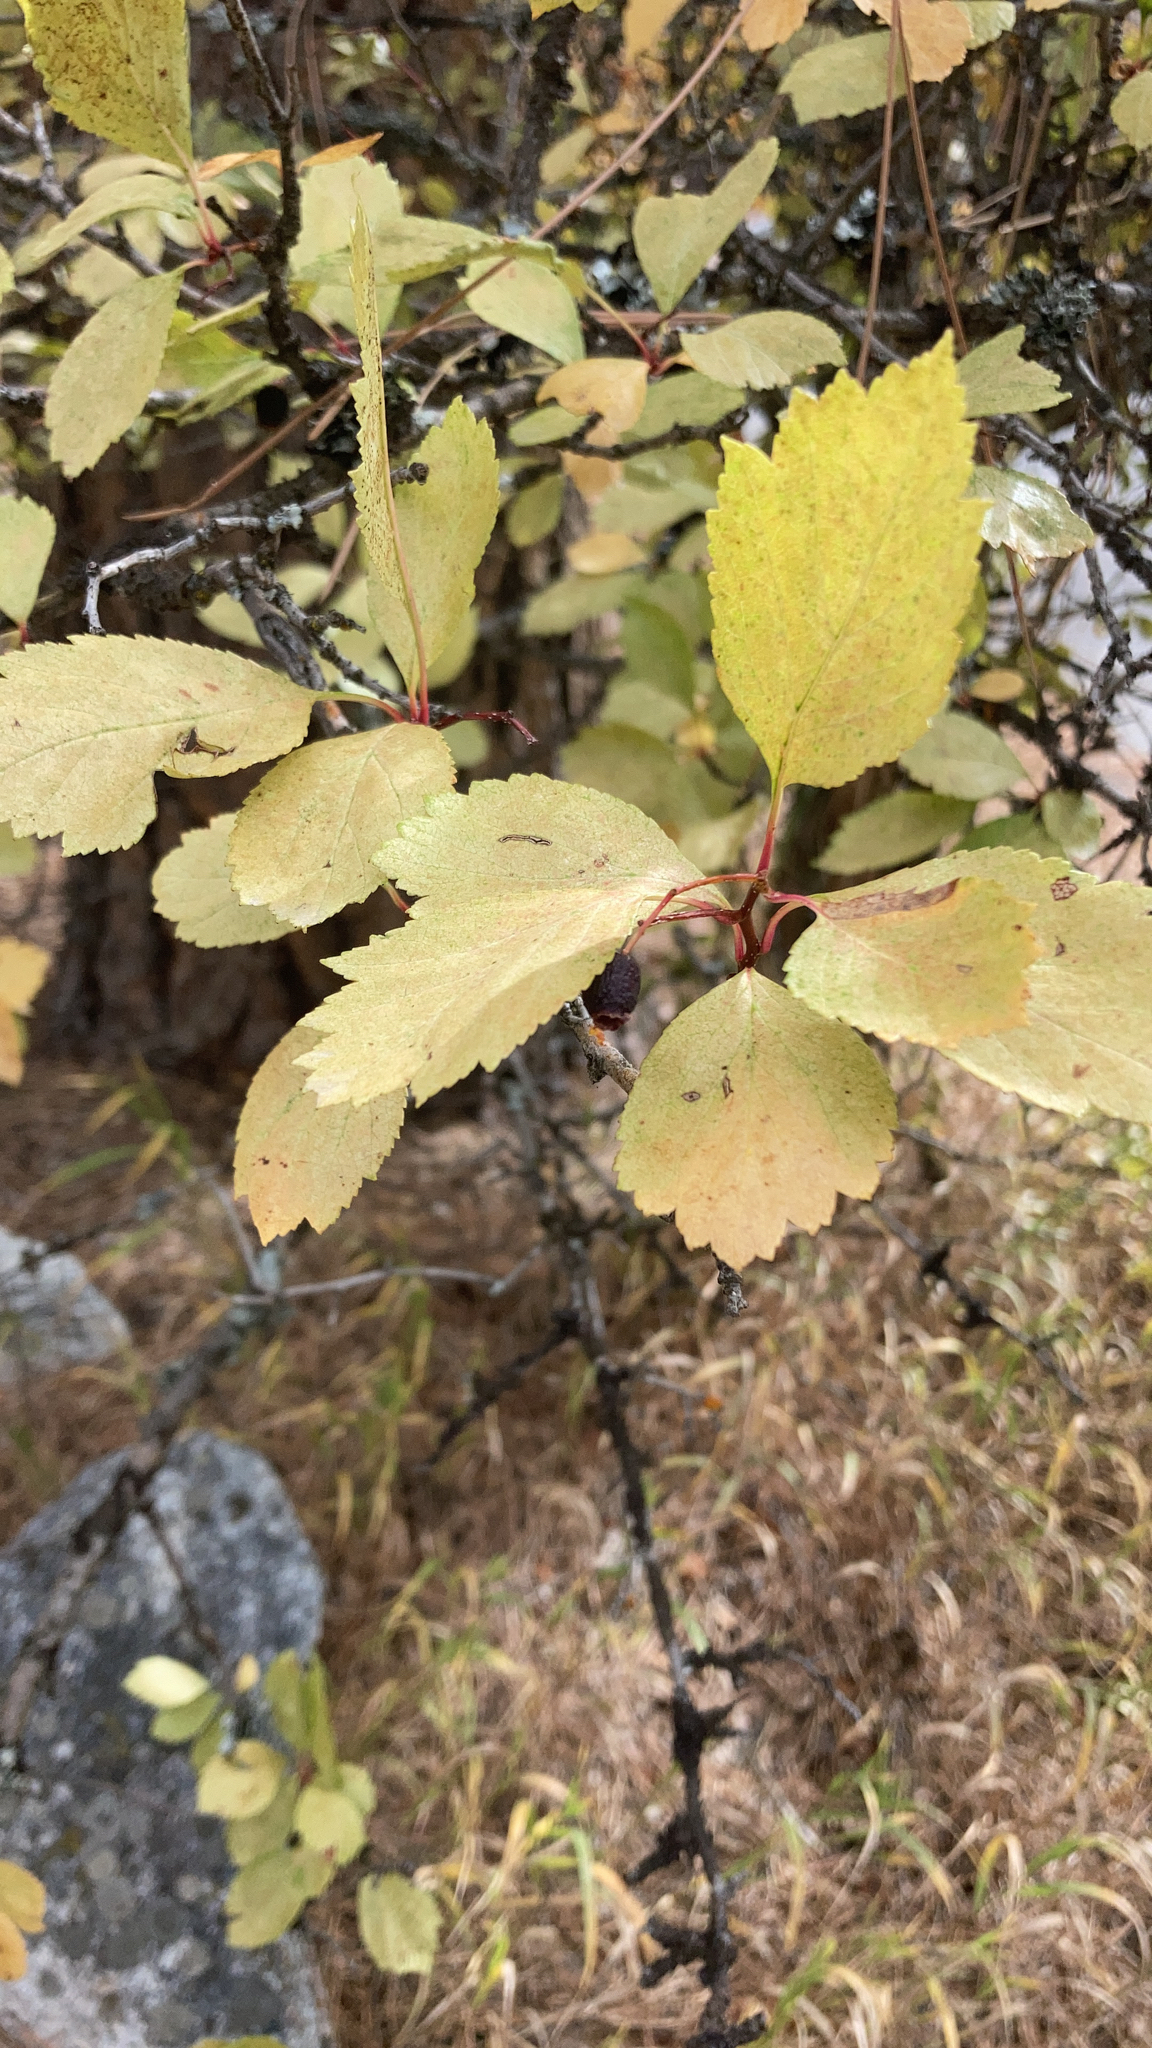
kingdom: Plantae
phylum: Tracheophyta
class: Magnoliopsida
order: Rosales
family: Rosaceae
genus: Crataegus
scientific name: Crataegus douglasii
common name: Black hawthorn
